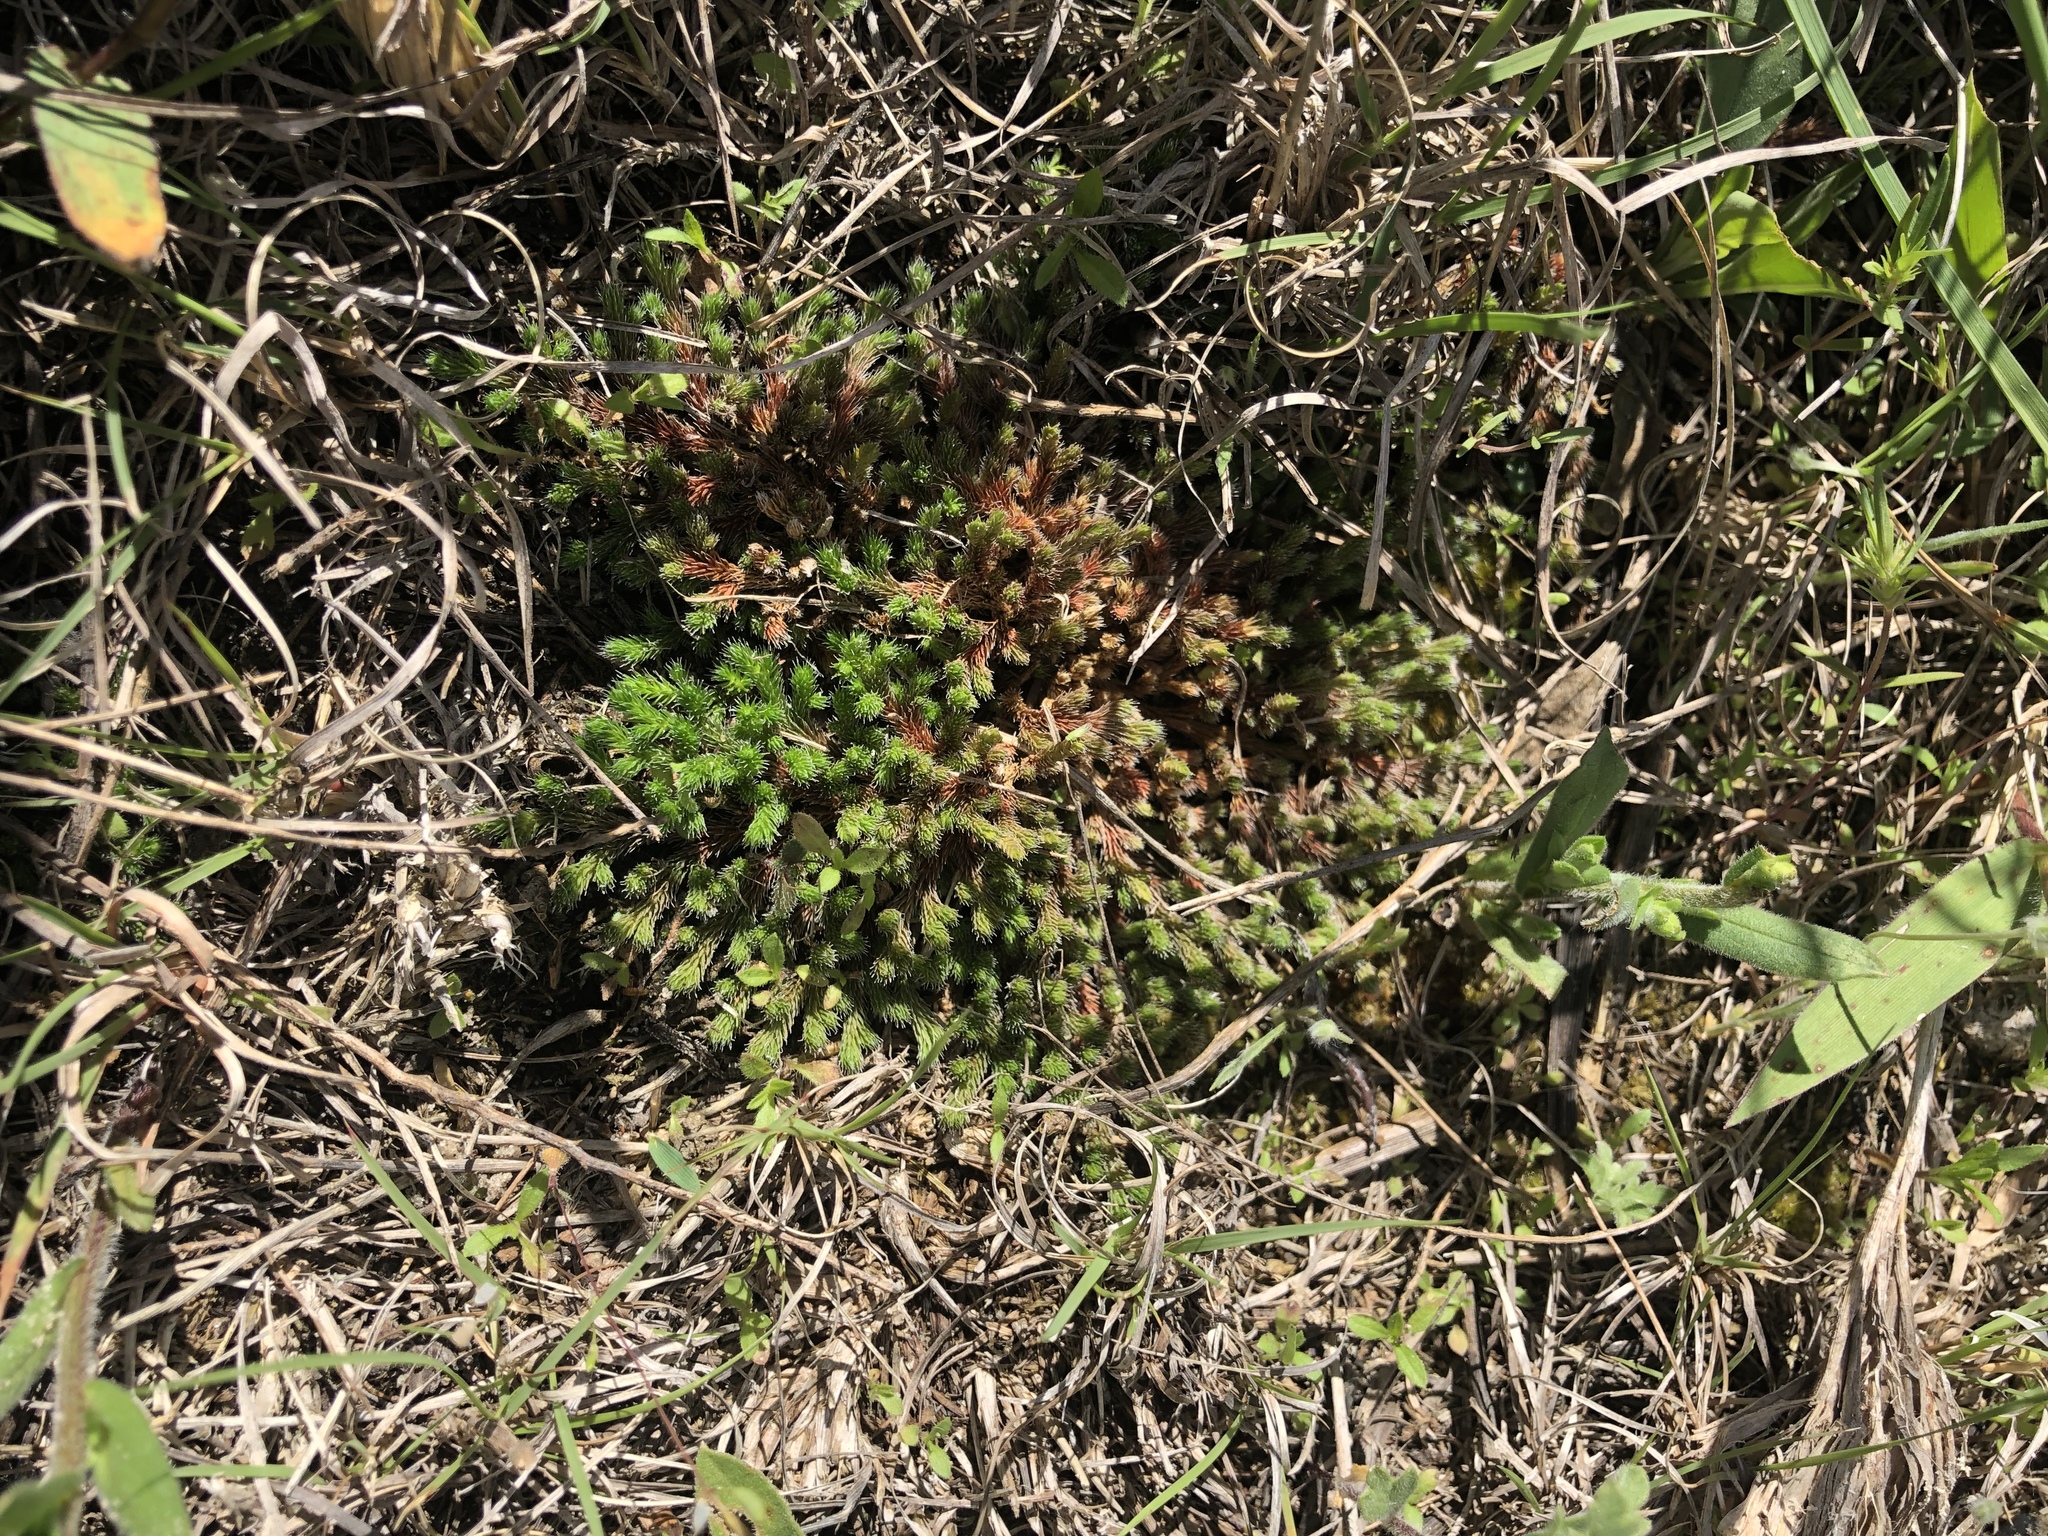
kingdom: Plantae
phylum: Tracheophyta
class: Lycopodiopsida
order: Selaginellales
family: Selaginellaceae
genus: Selaginella
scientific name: Selaginella rupestris
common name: Dwarf spikemoss
